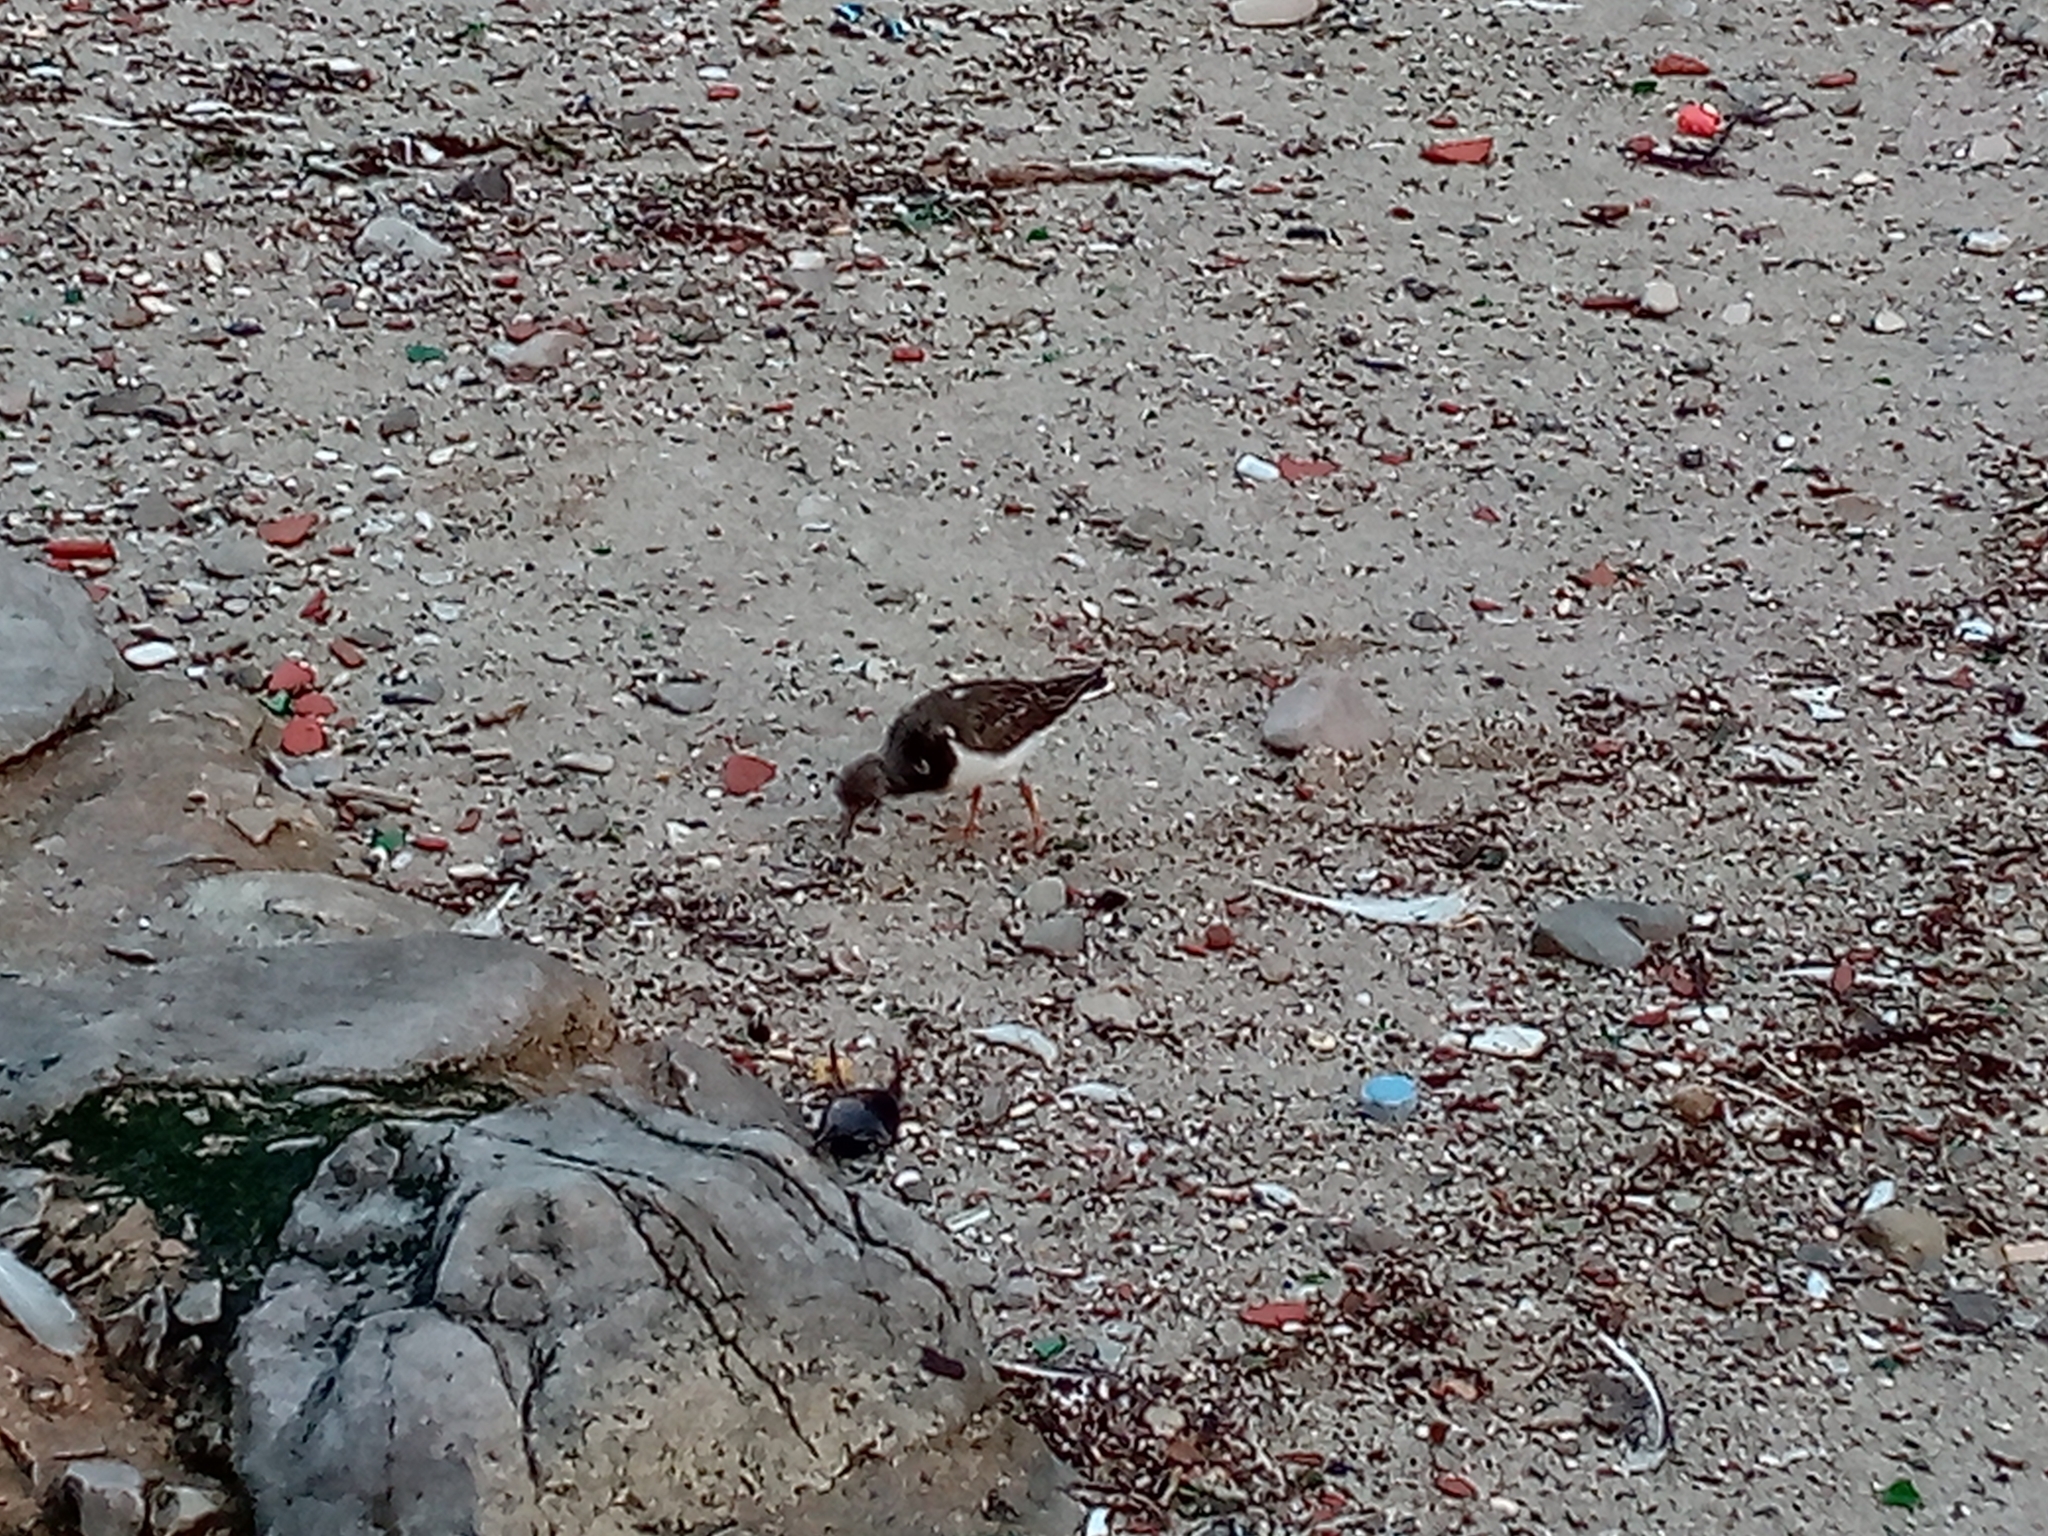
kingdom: Animalia
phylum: Chordata
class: Aves
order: Charadriiformes
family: Scolopacidae
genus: Arenaria
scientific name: Arenaria interpres
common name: Ruddy turnstone
